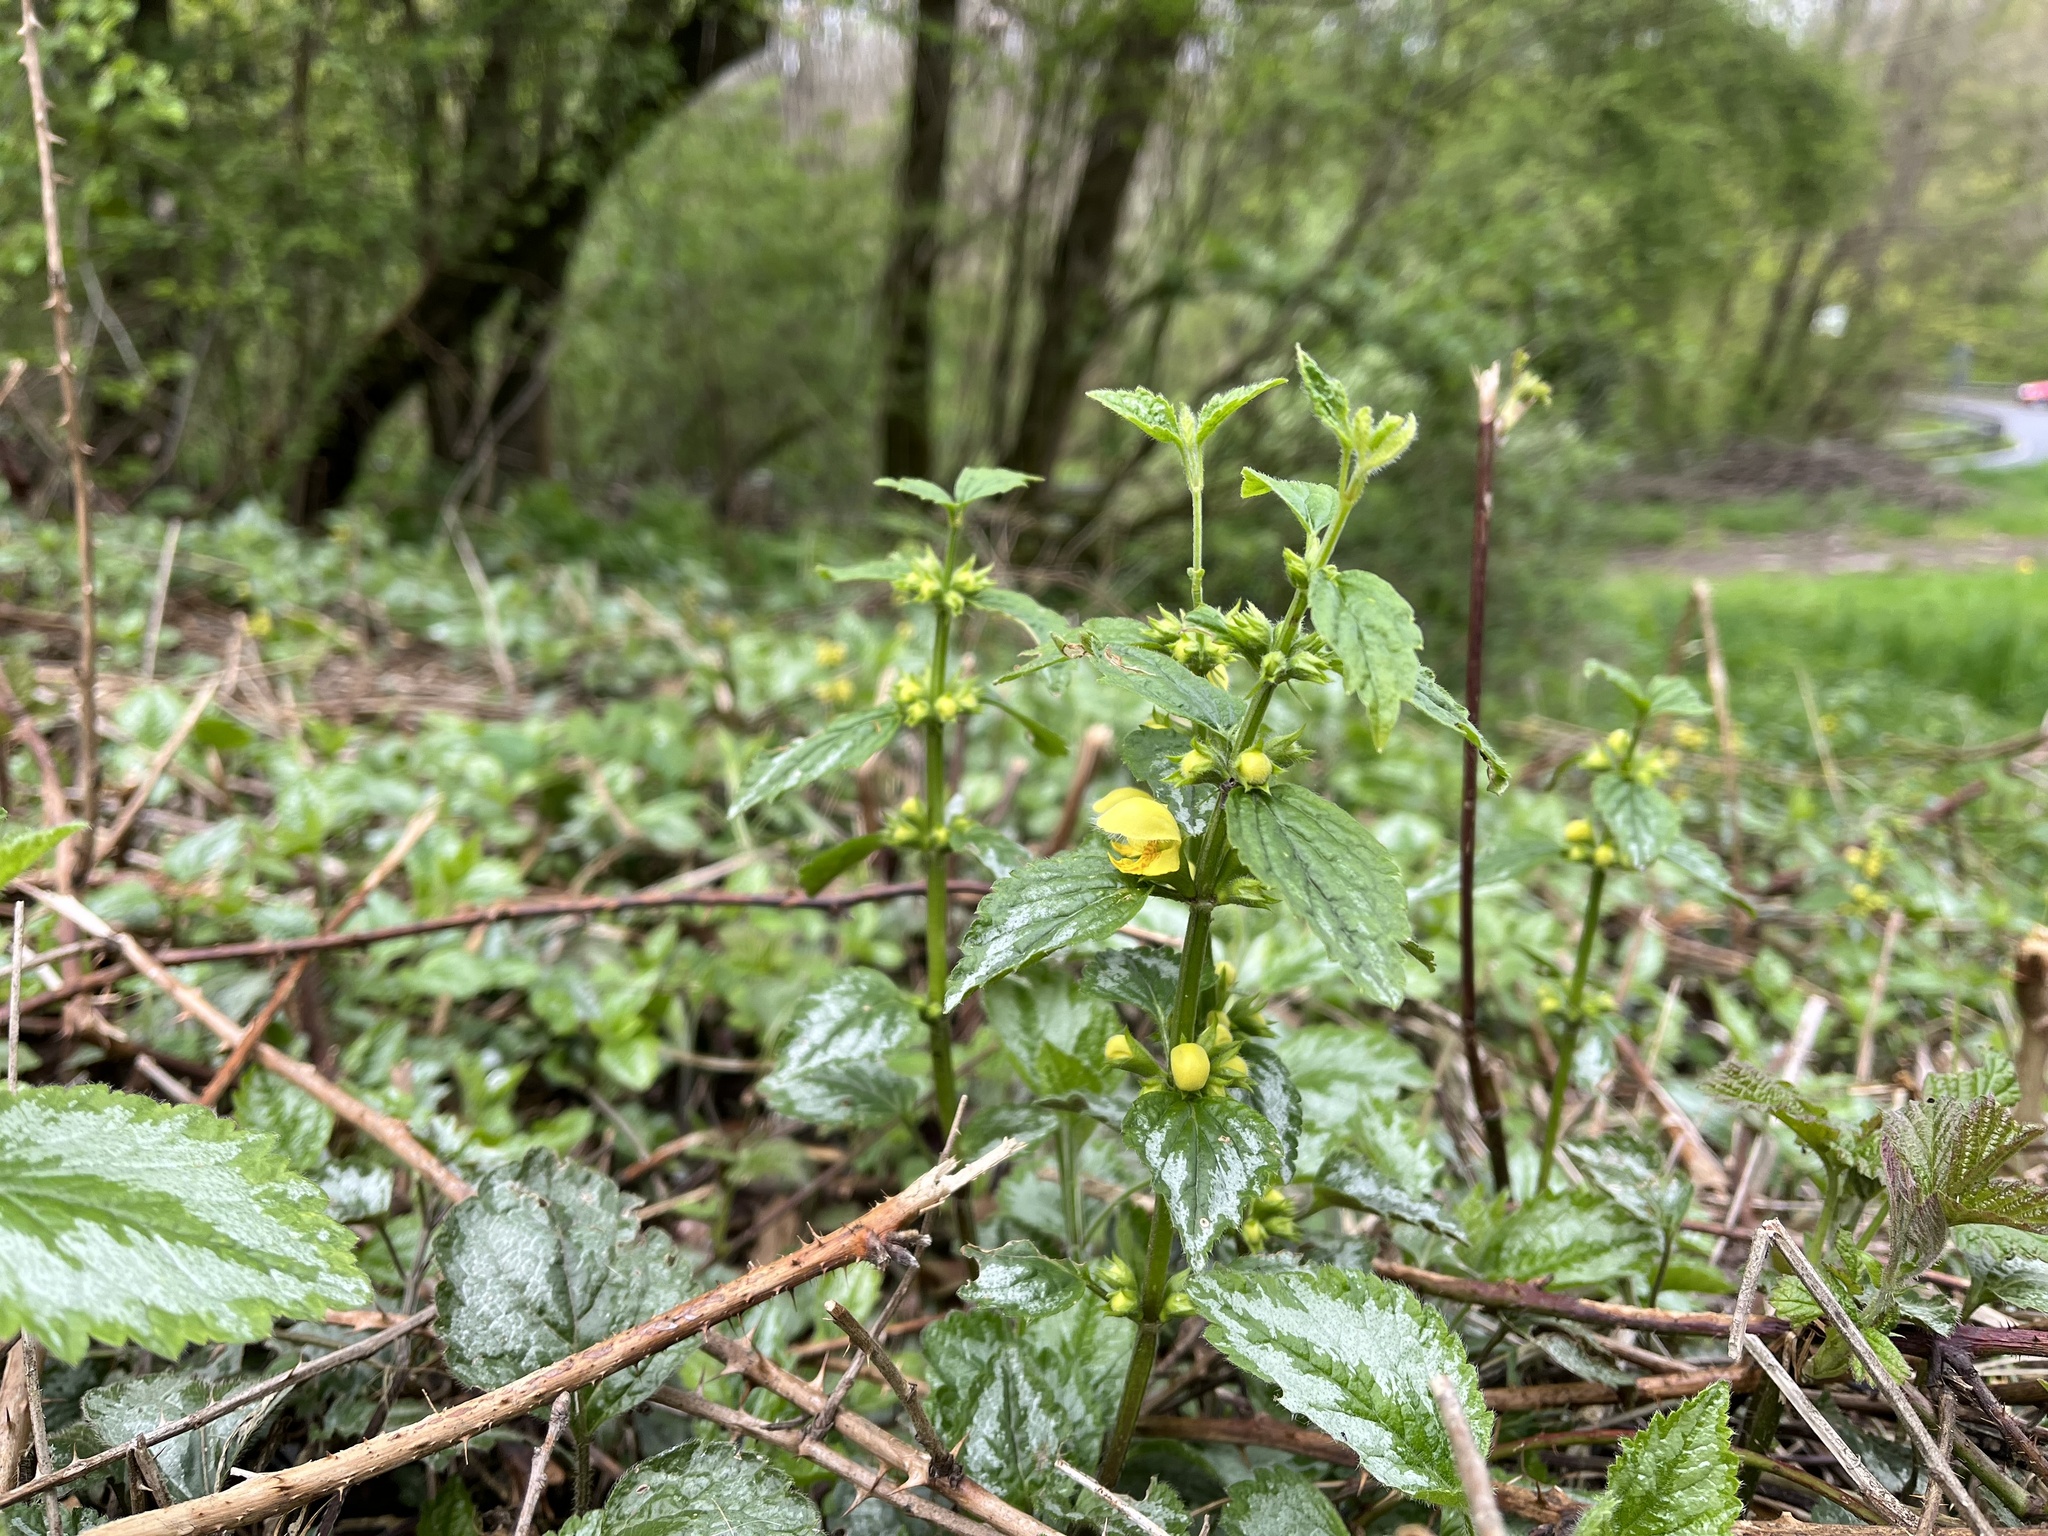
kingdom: Plantae
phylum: Tracheophyta
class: Magnoliopsida
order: Lamiales
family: Lamiaceae
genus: Lamium
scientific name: Lamium galeobdolon
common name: Yellow archangel
